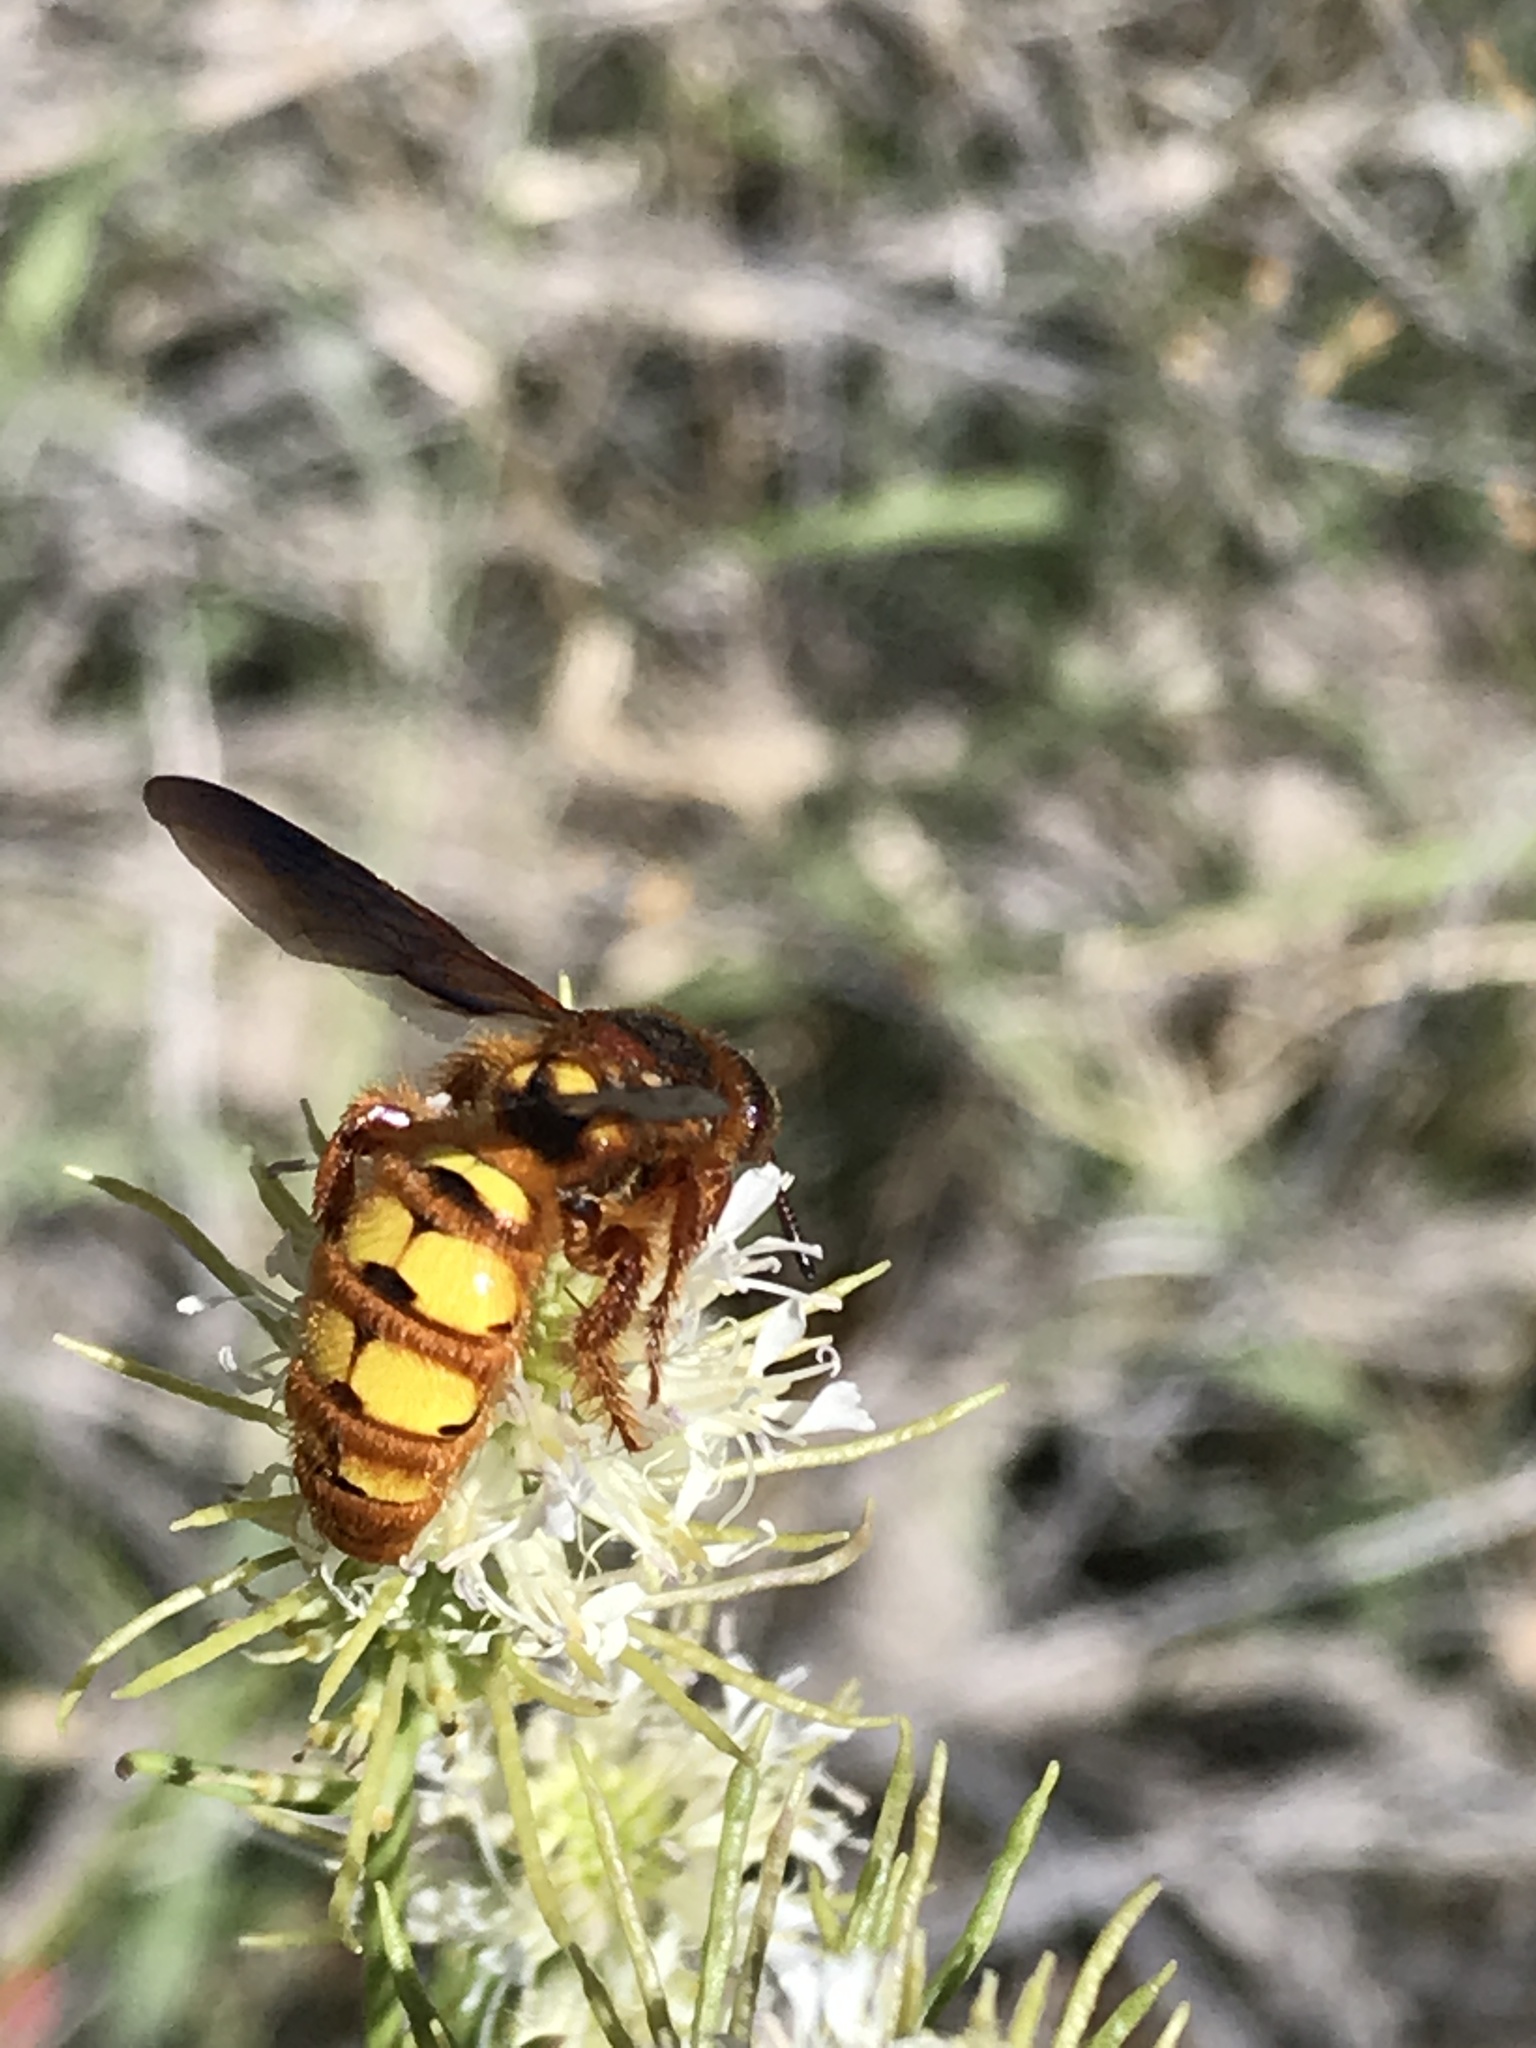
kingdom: Animalia
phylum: Arthropoda
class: Insecta
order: Hymenoptera
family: Sphecidae
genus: Crioscolia
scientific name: Crioscolia
